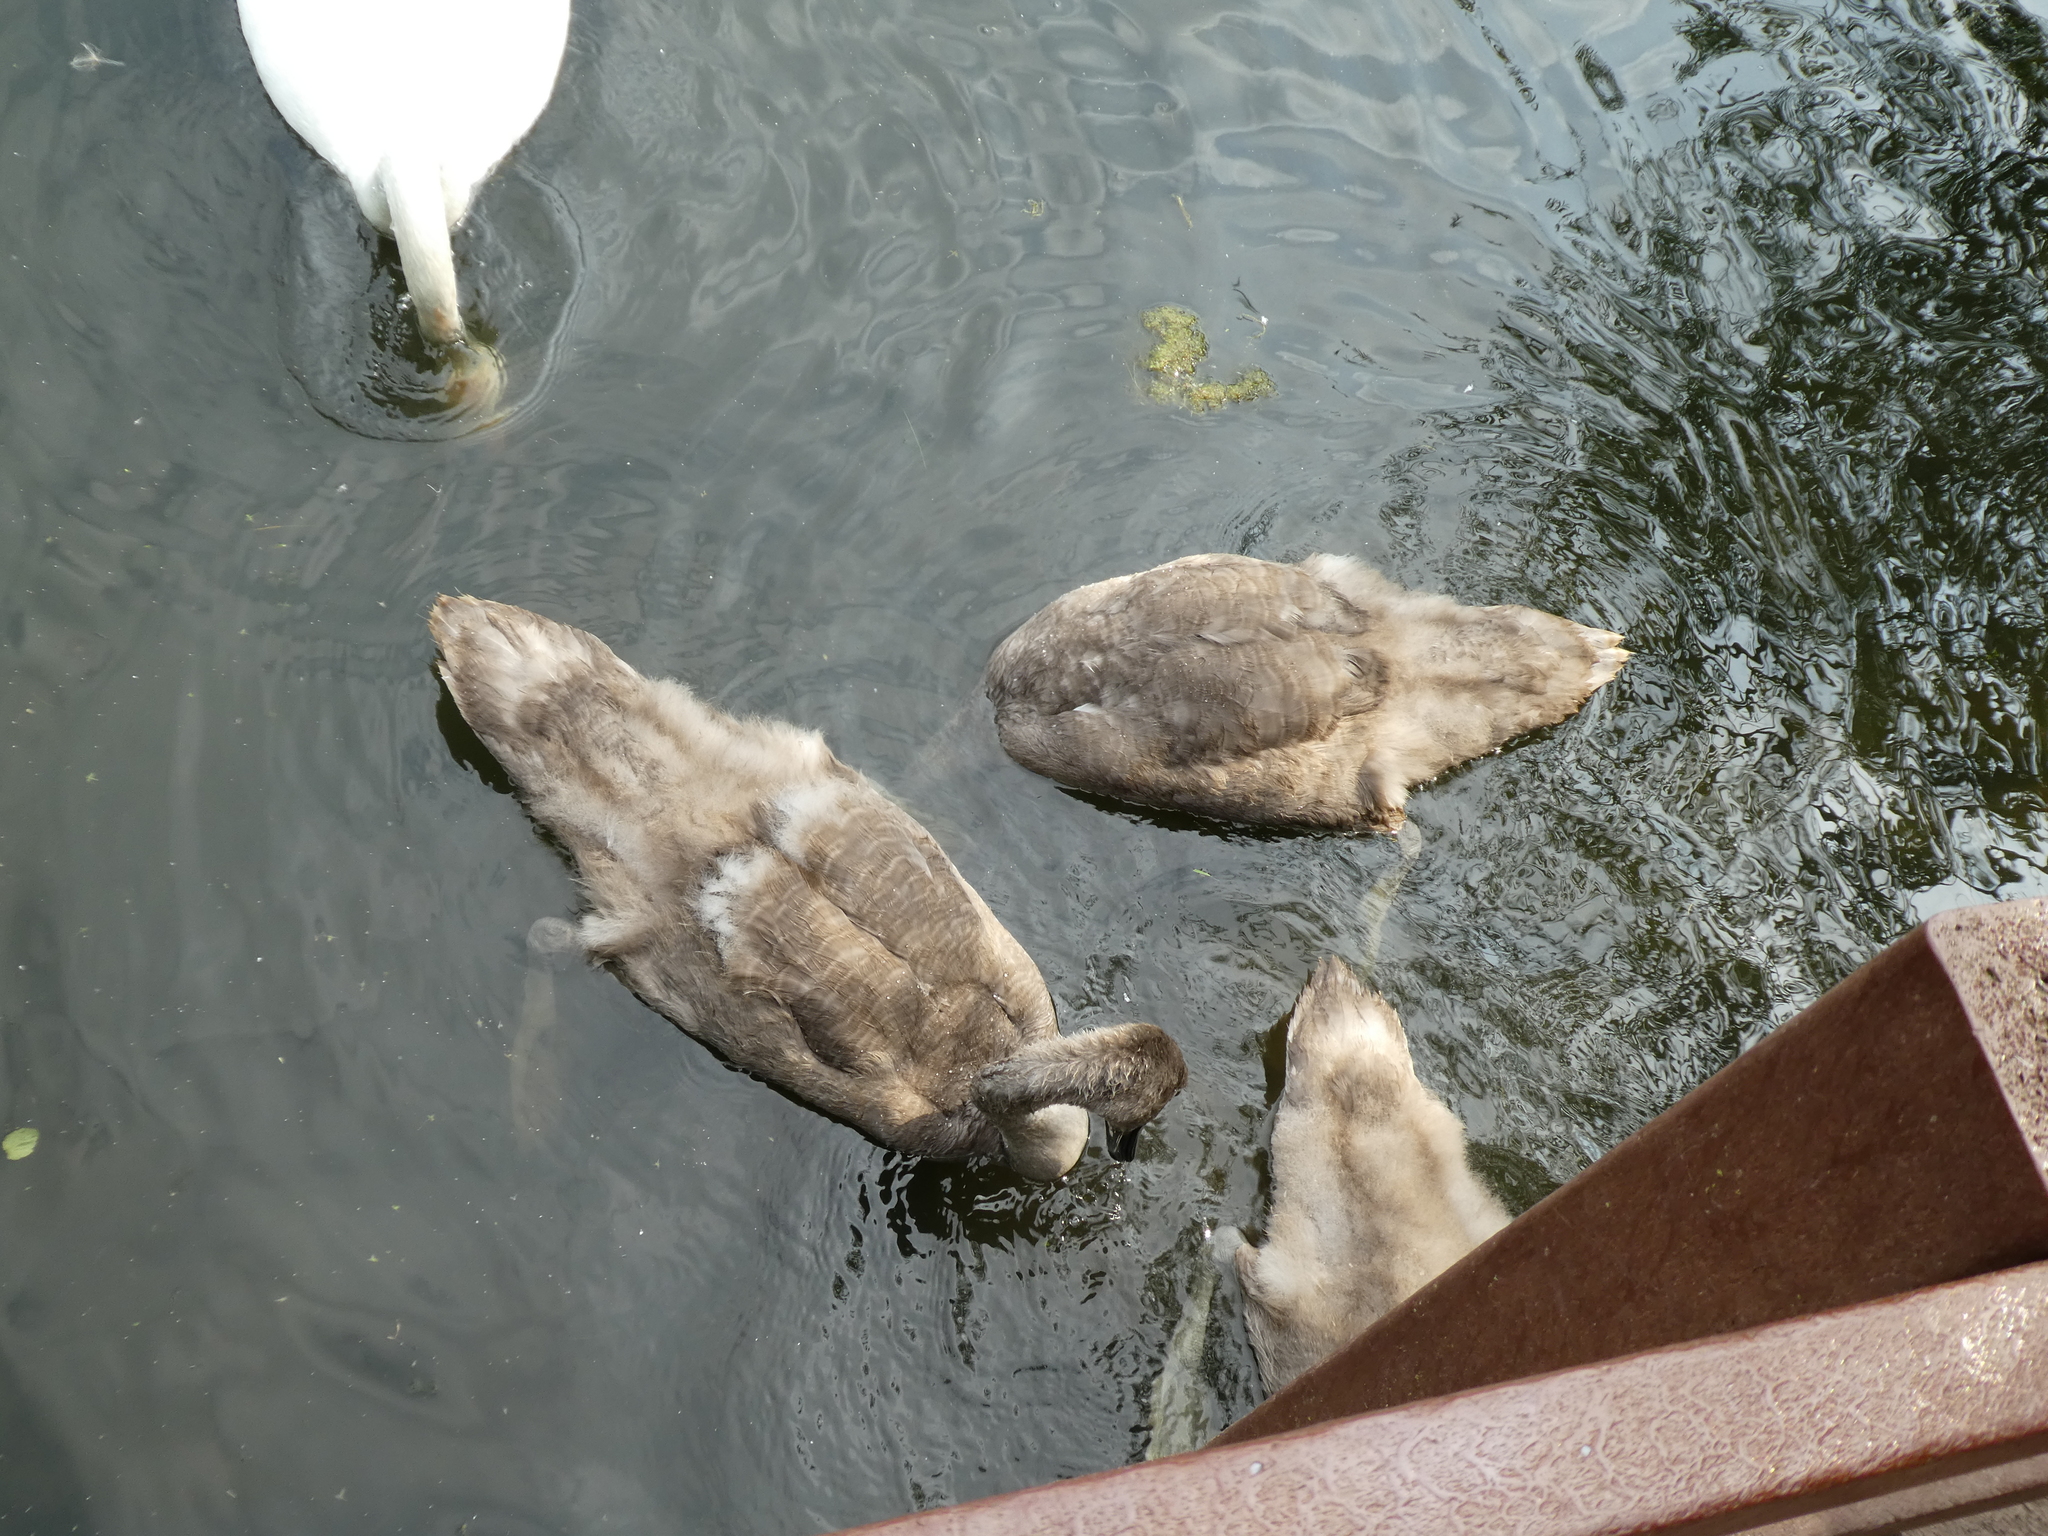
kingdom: Animalia
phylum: Chordata
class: Aves
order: Anseriformes
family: Anatidae
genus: Cygnus
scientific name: Cygnus olor
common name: Mute swan
